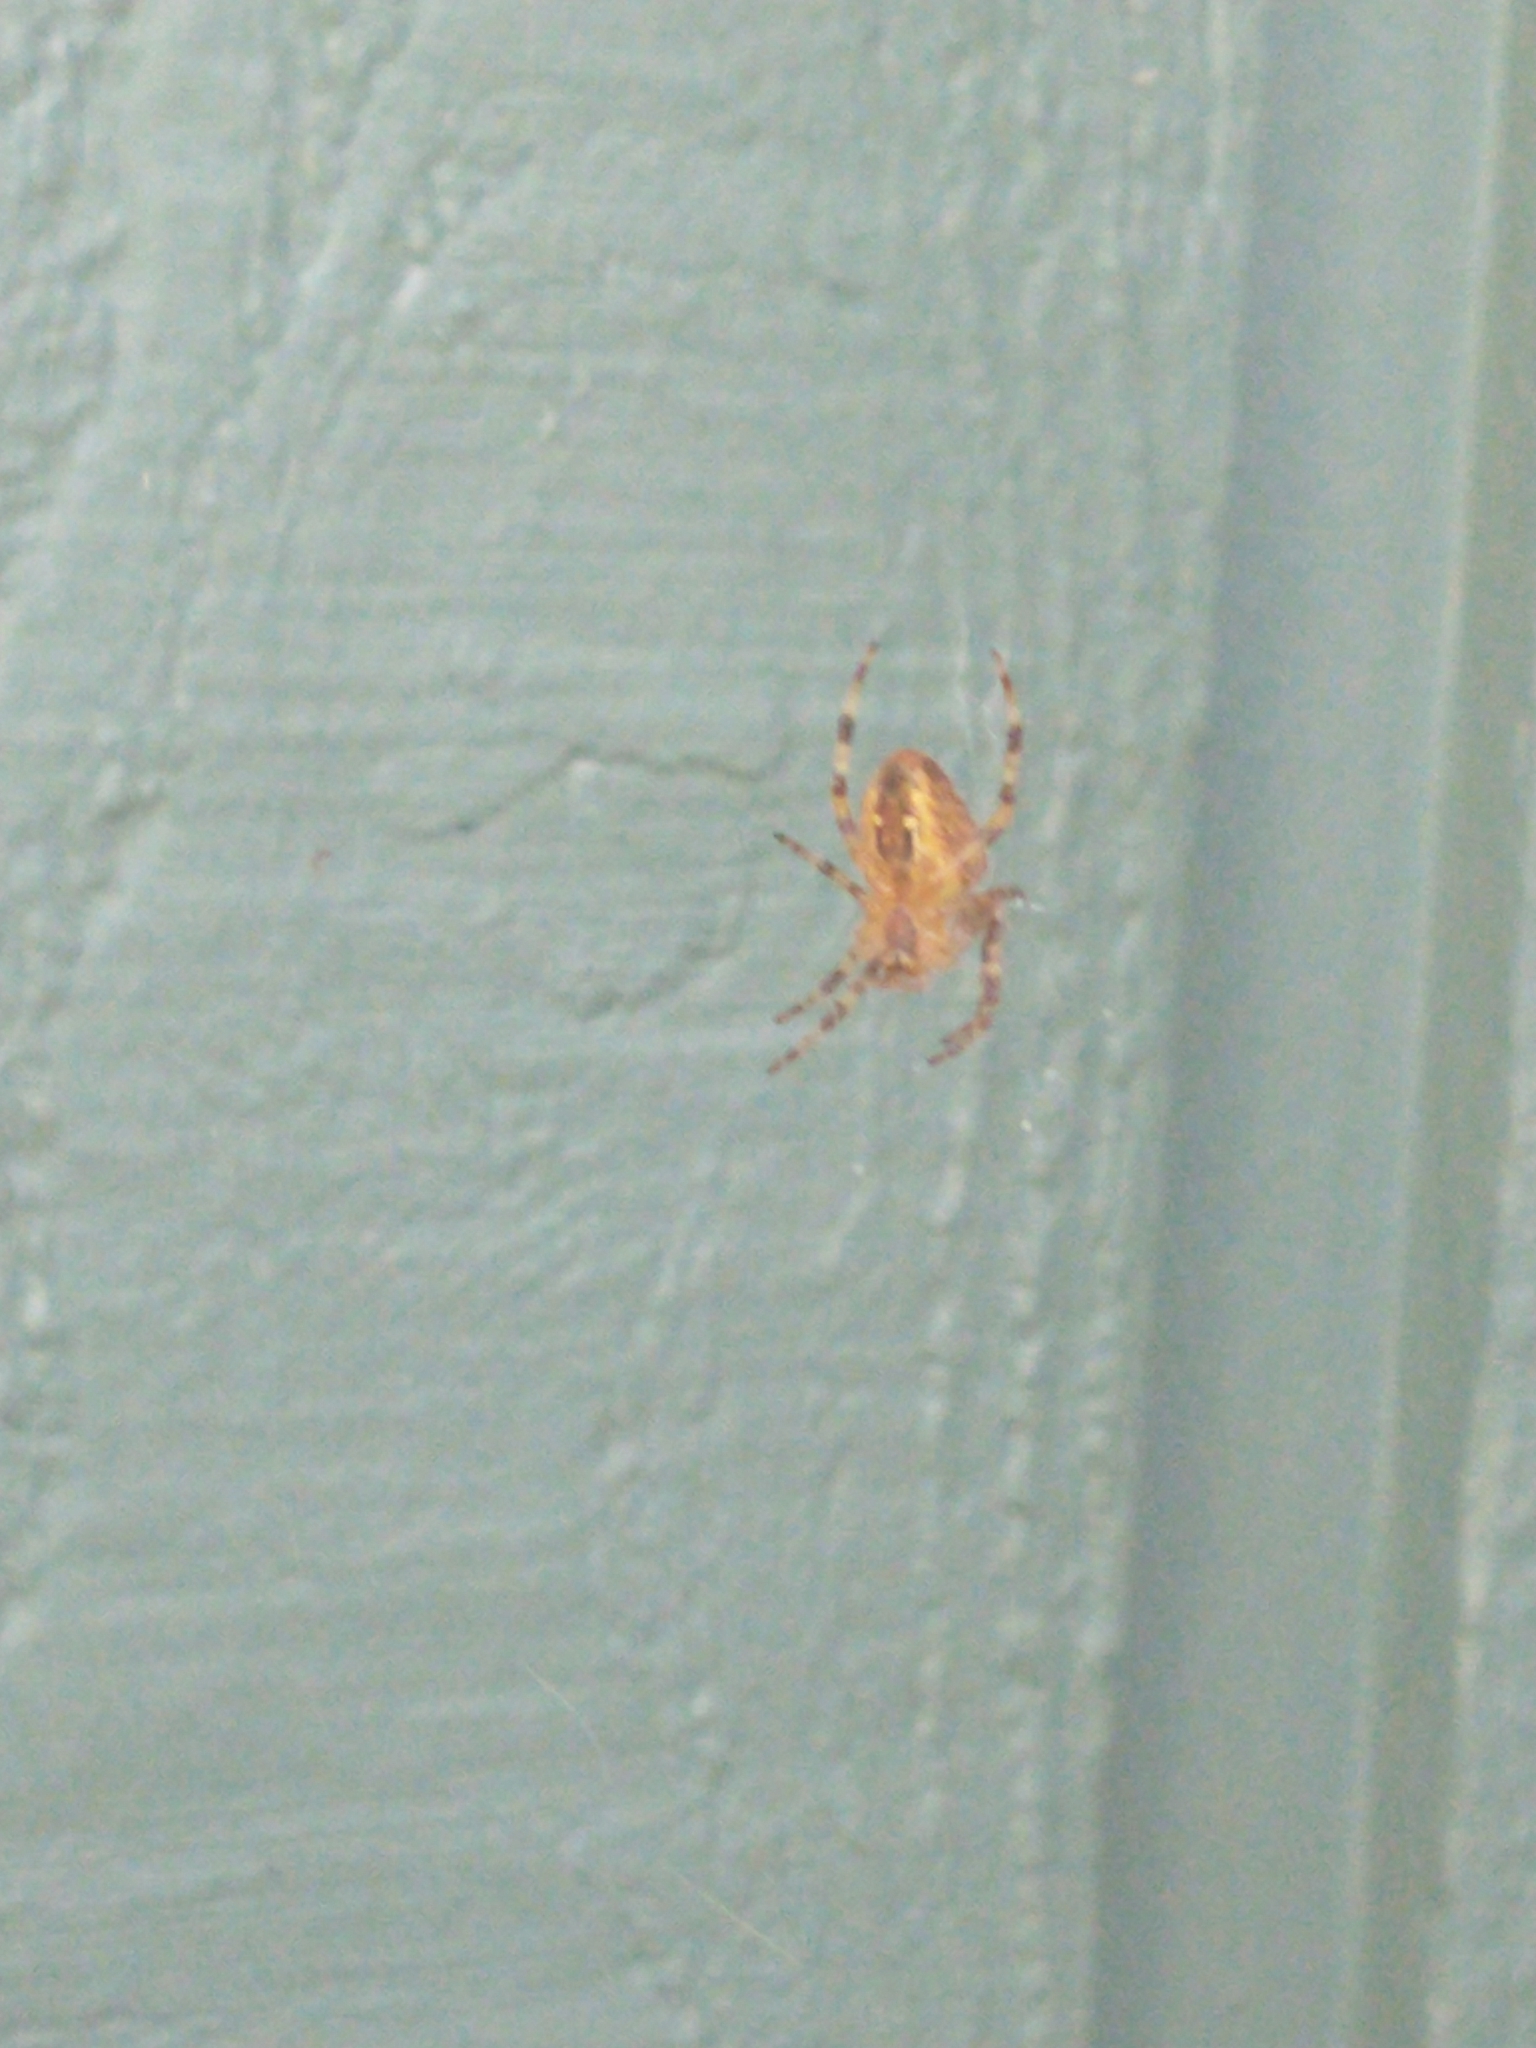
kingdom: Animalia
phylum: Arthropoda
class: Arachnida
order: Araneae
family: Araneidae
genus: Araneus
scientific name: Araneus diadematus
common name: Cross orbweaver
